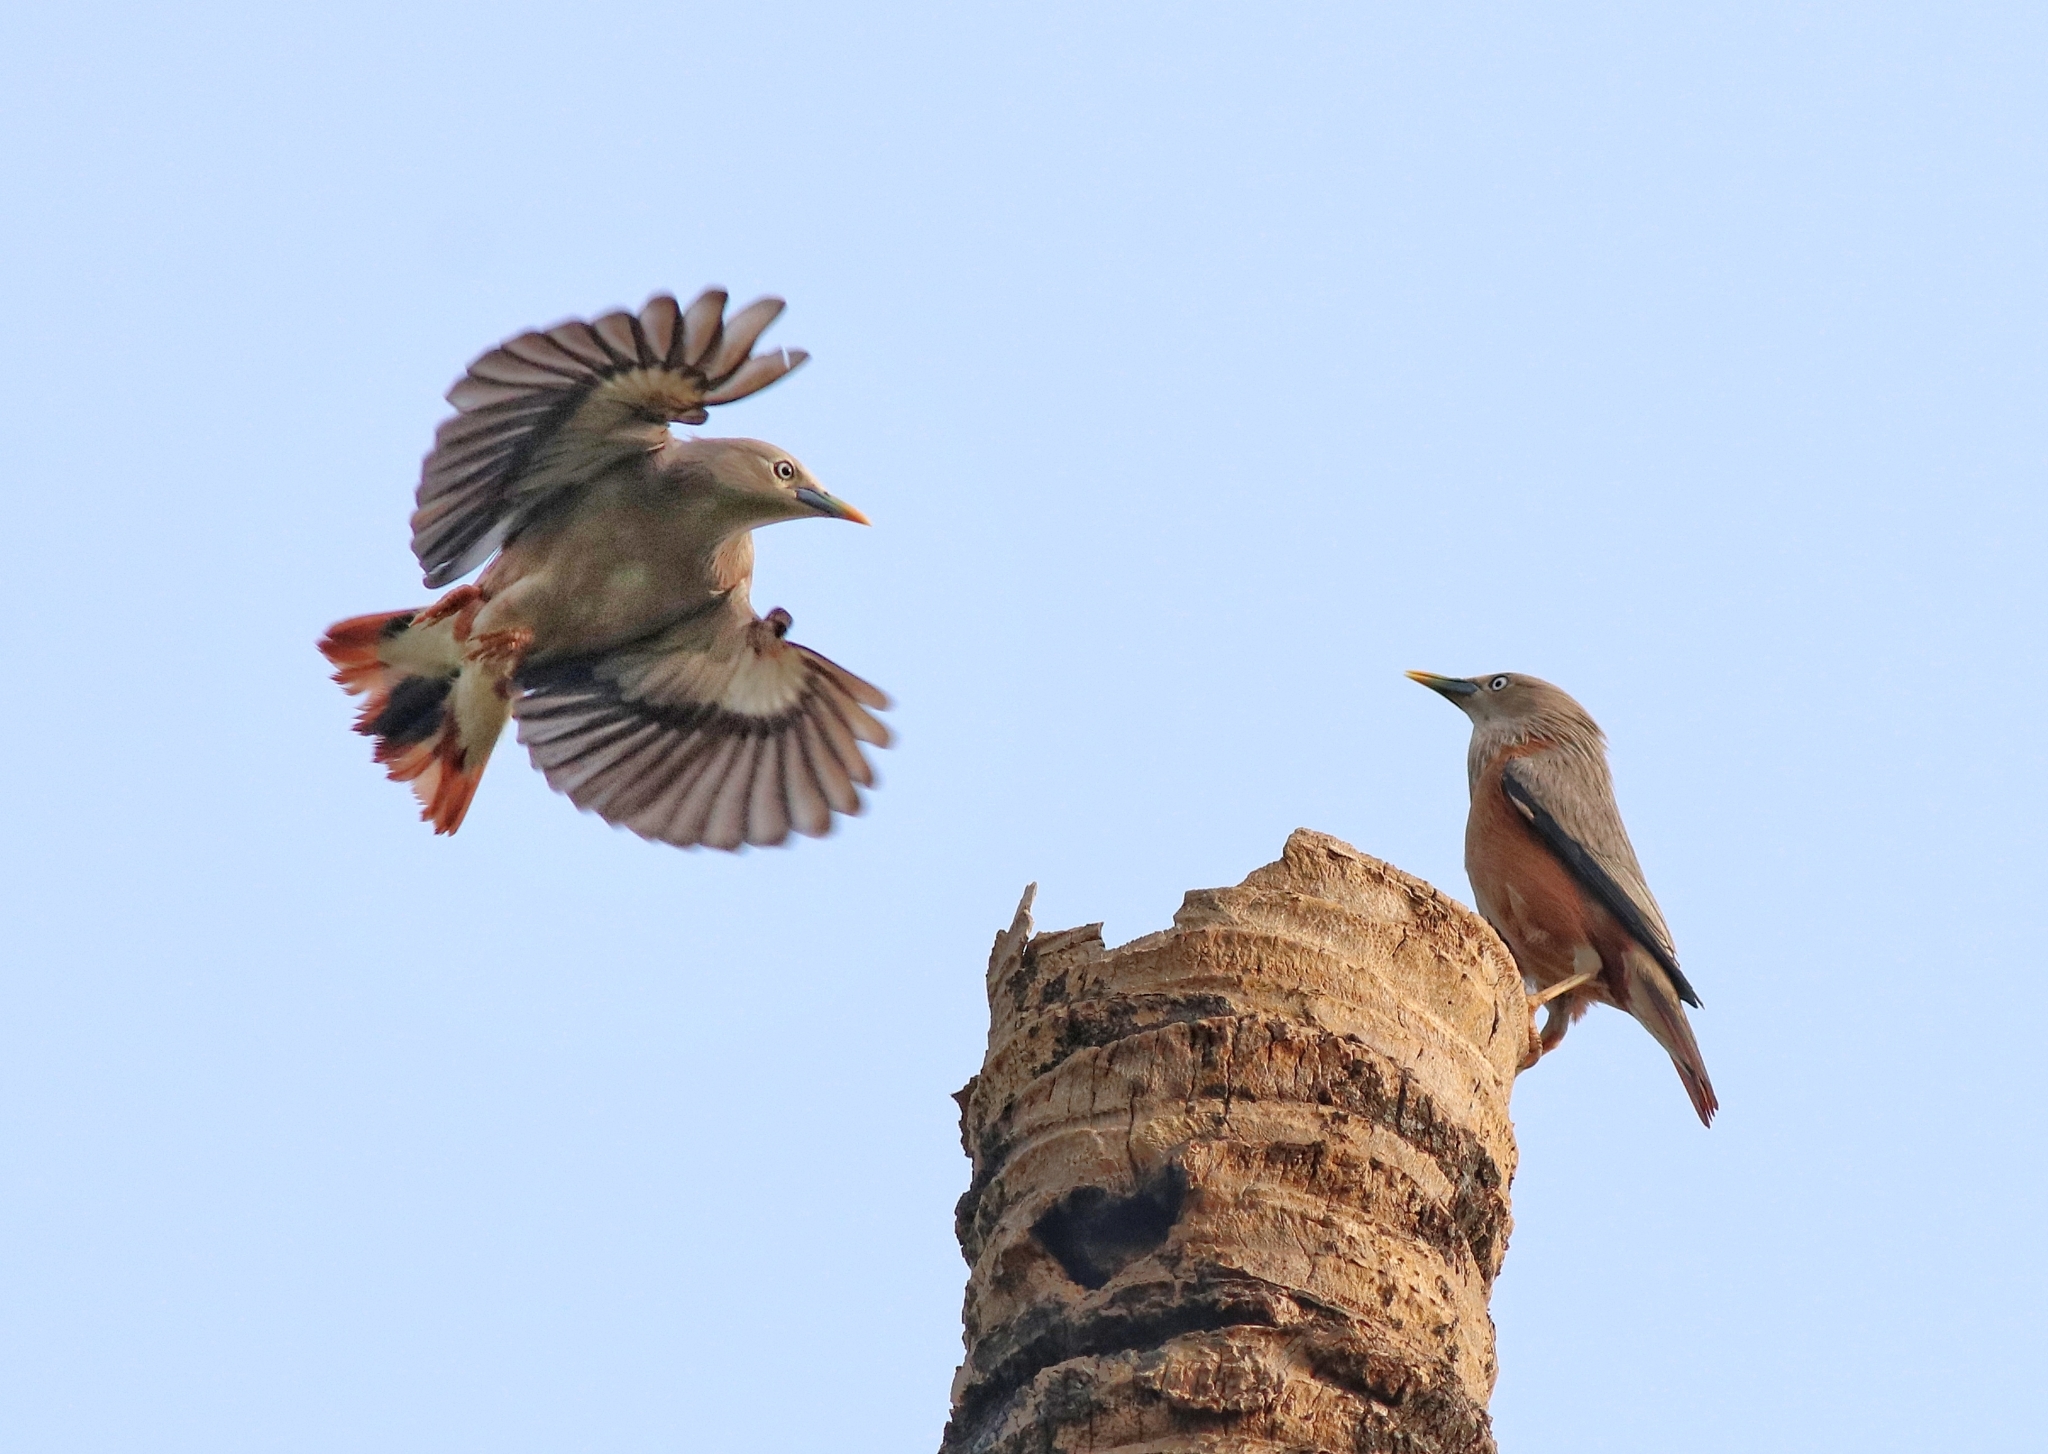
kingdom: Animalia
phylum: Chordata
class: Aves
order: Passeriformes
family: Sturnidae
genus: Sturnia
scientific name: Sturnia blythii
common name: Malabar starling
